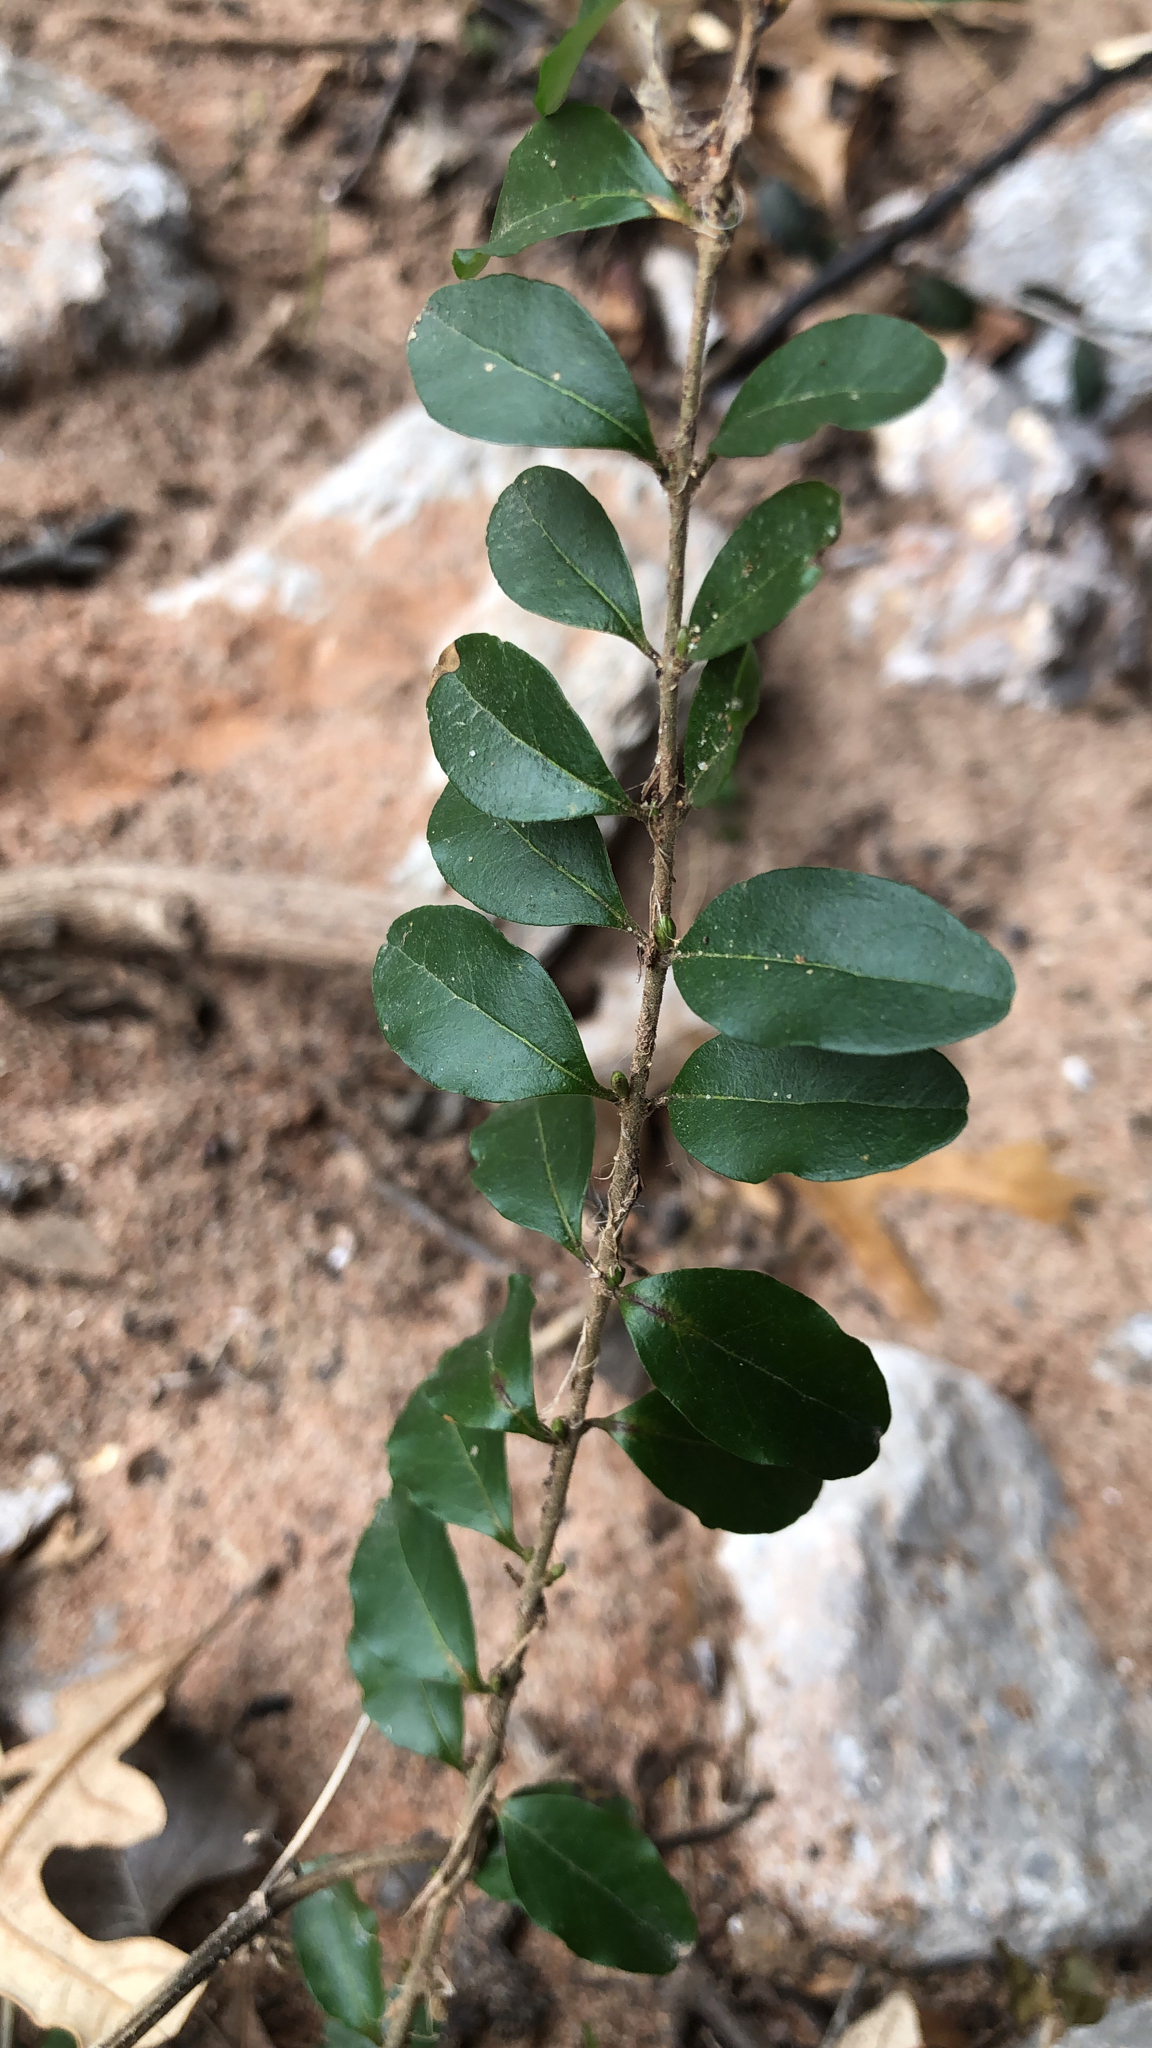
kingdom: Plantae
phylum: Tracheophyta
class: Magnoliopsida
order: Lamiales
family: Oleaceae
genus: Ligustrum
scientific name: Ligustrum sinense
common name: Chinese privet
